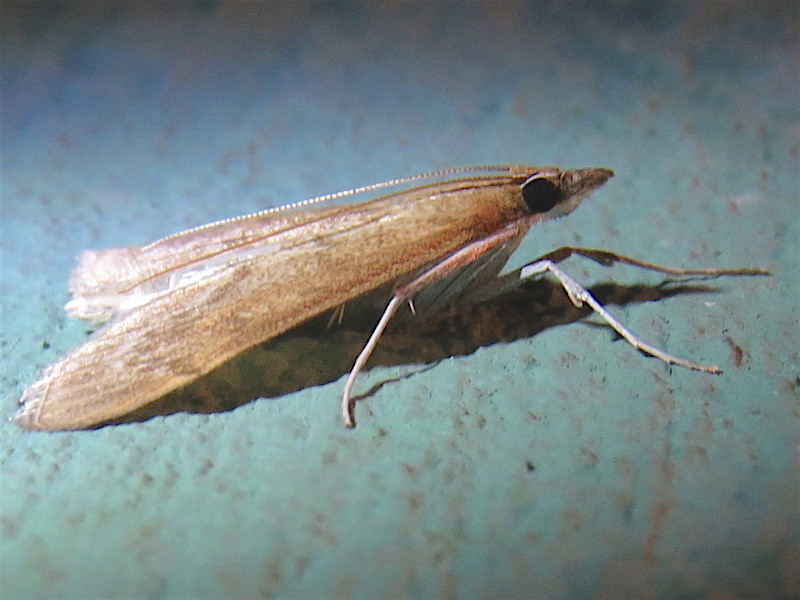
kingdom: Animalia
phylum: Arthropoda
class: Insecta
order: Lepidoptera
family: Crambidae
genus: Saucrobotys
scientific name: Saucrobotys futilalis
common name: Dogbane saucrobotys moth
